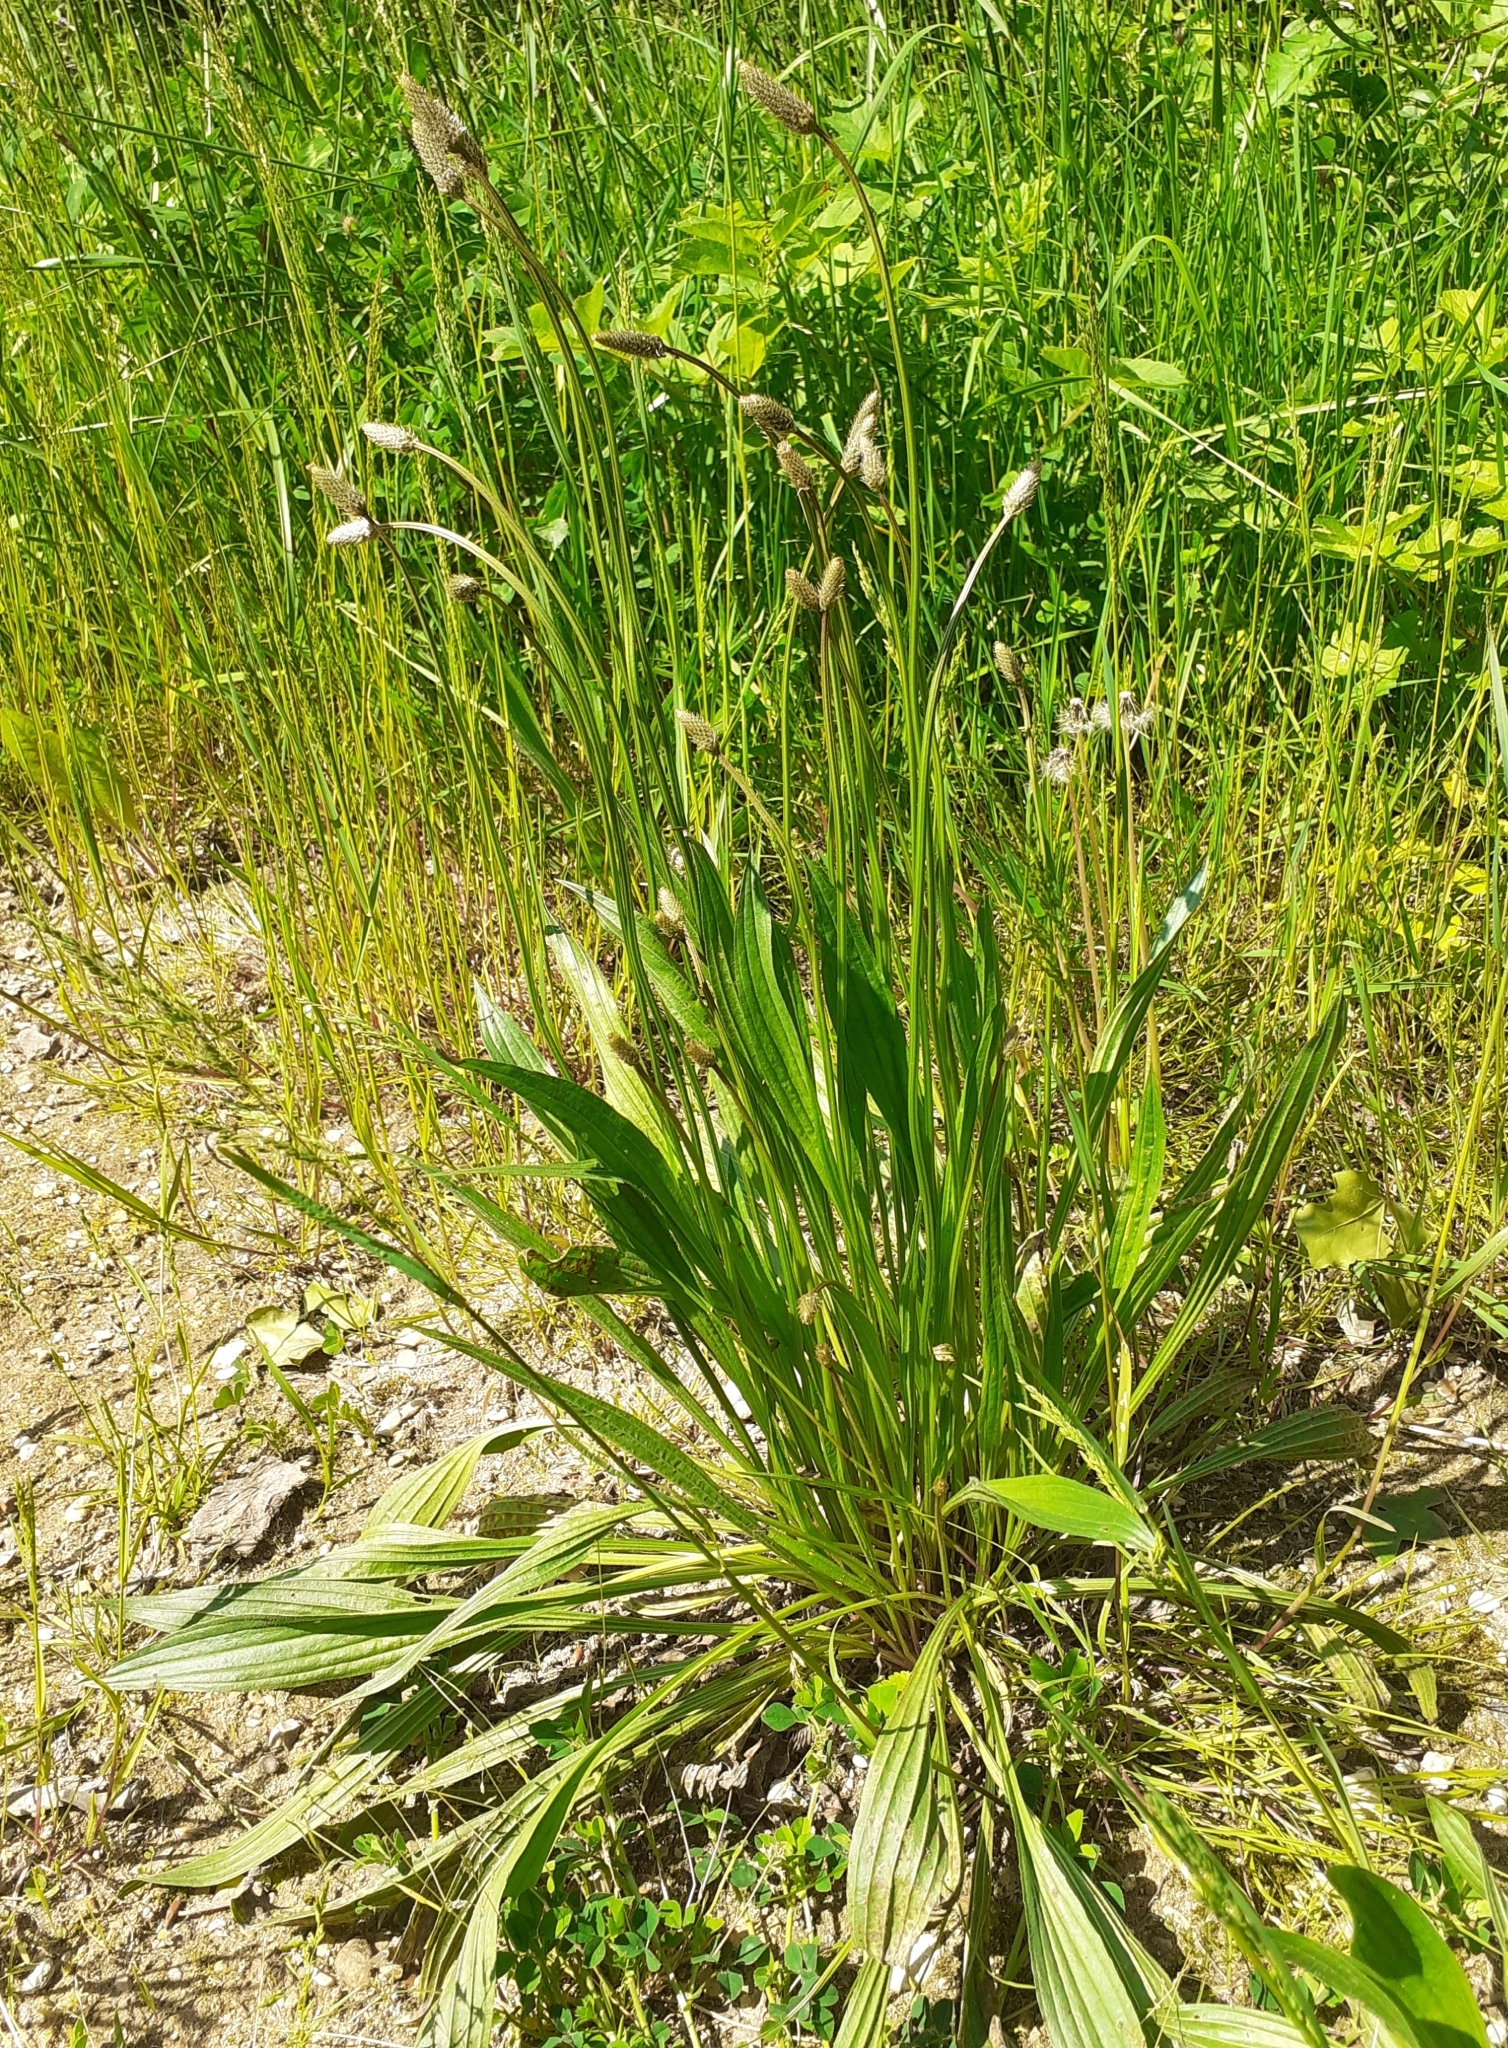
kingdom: Plantae
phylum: Tracheophyta
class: Magnoliopsida
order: Lamiales
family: Plantaginaceae
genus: Plantago
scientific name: Plantago lanceolata
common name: Ribwort plantain
